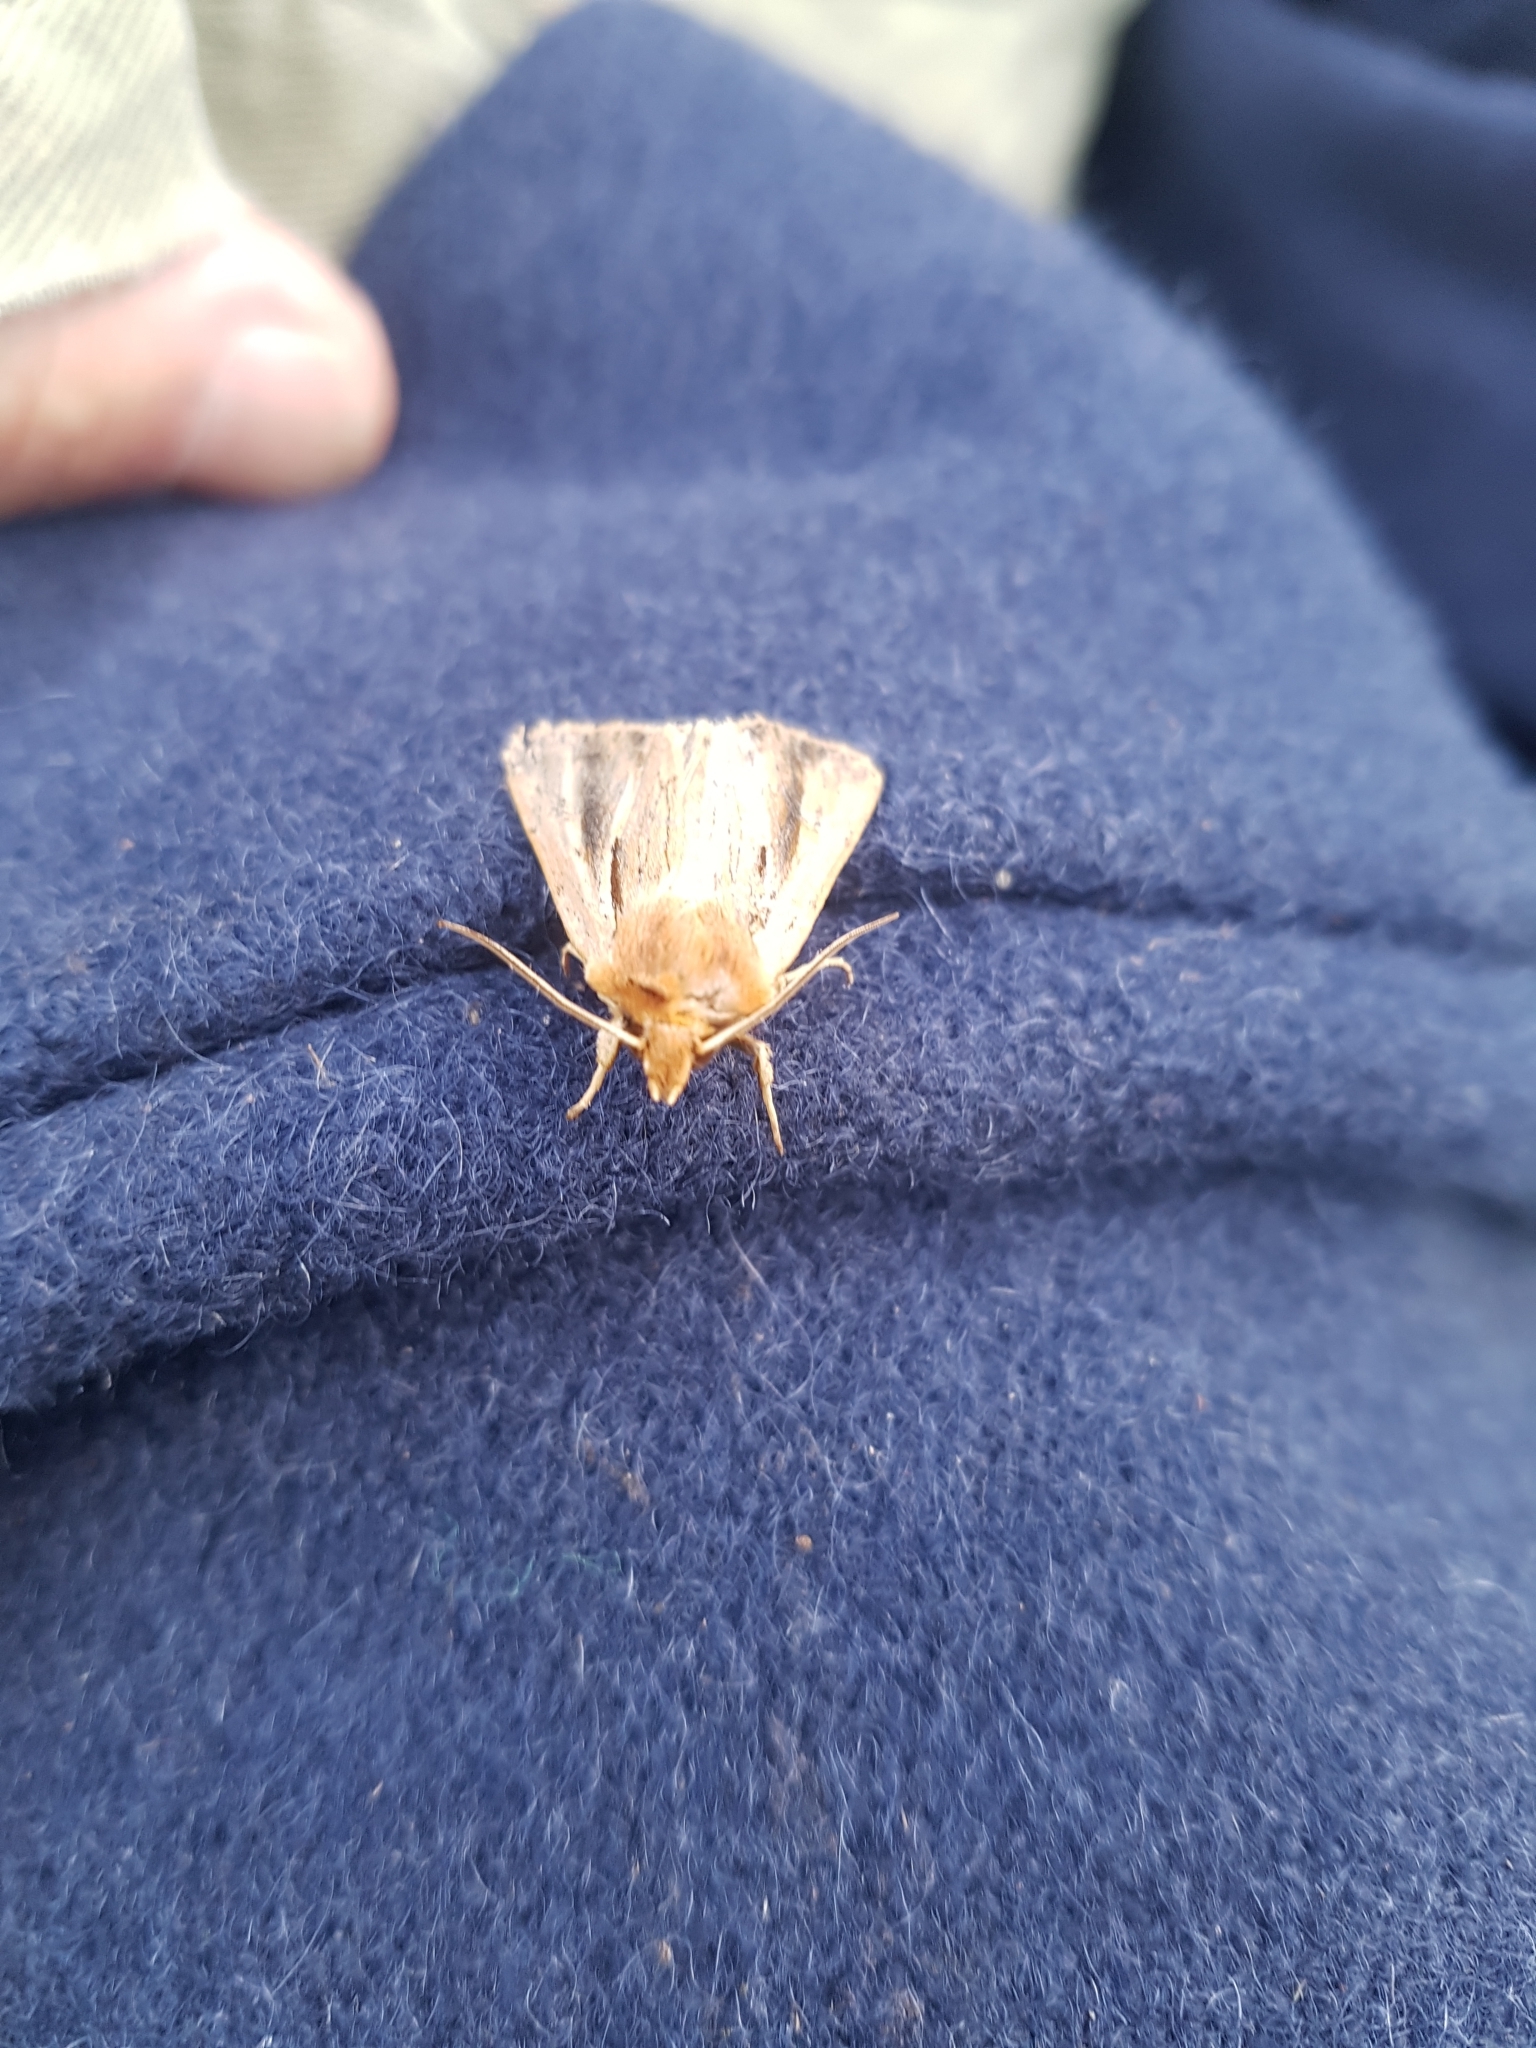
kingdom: Animalia
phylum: Arthropoda
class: Insecta
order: Lepidoptera
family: Noctuidae
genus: Ichneutica
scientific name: Ichneutica propria
